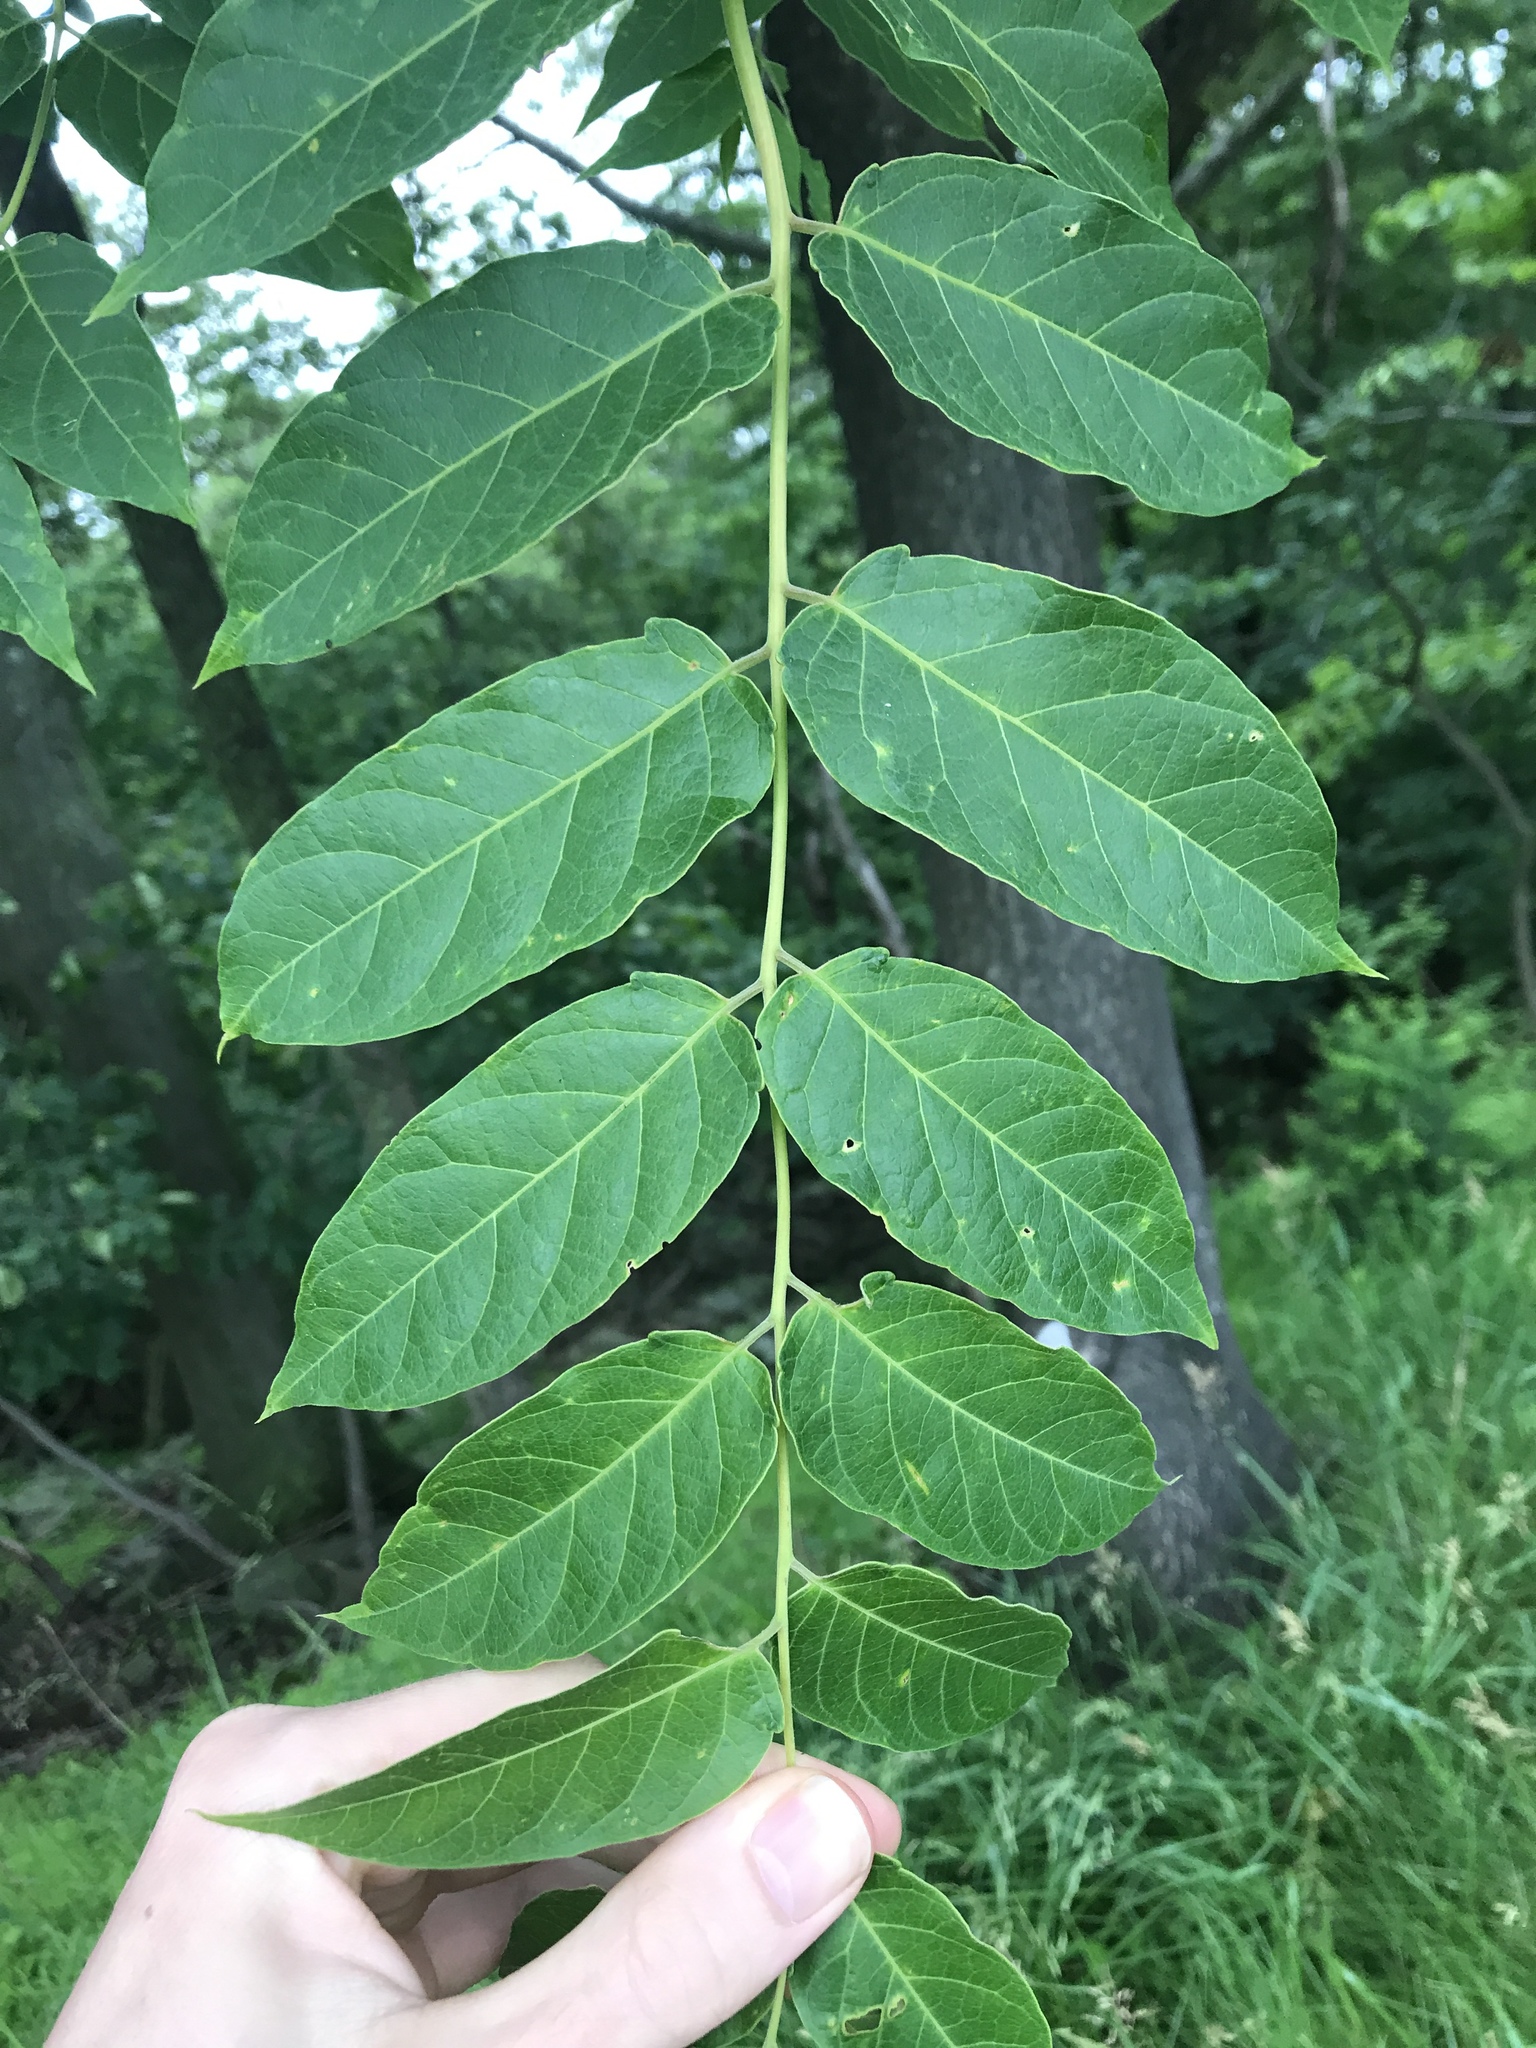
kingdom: Plantae
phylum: Tracheophyta
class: Magnoliopsida
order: Sapindales
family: Simaroubaceae
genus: Ailanthus
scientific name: Ailanthus altissima
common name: Tree-of-heaven
